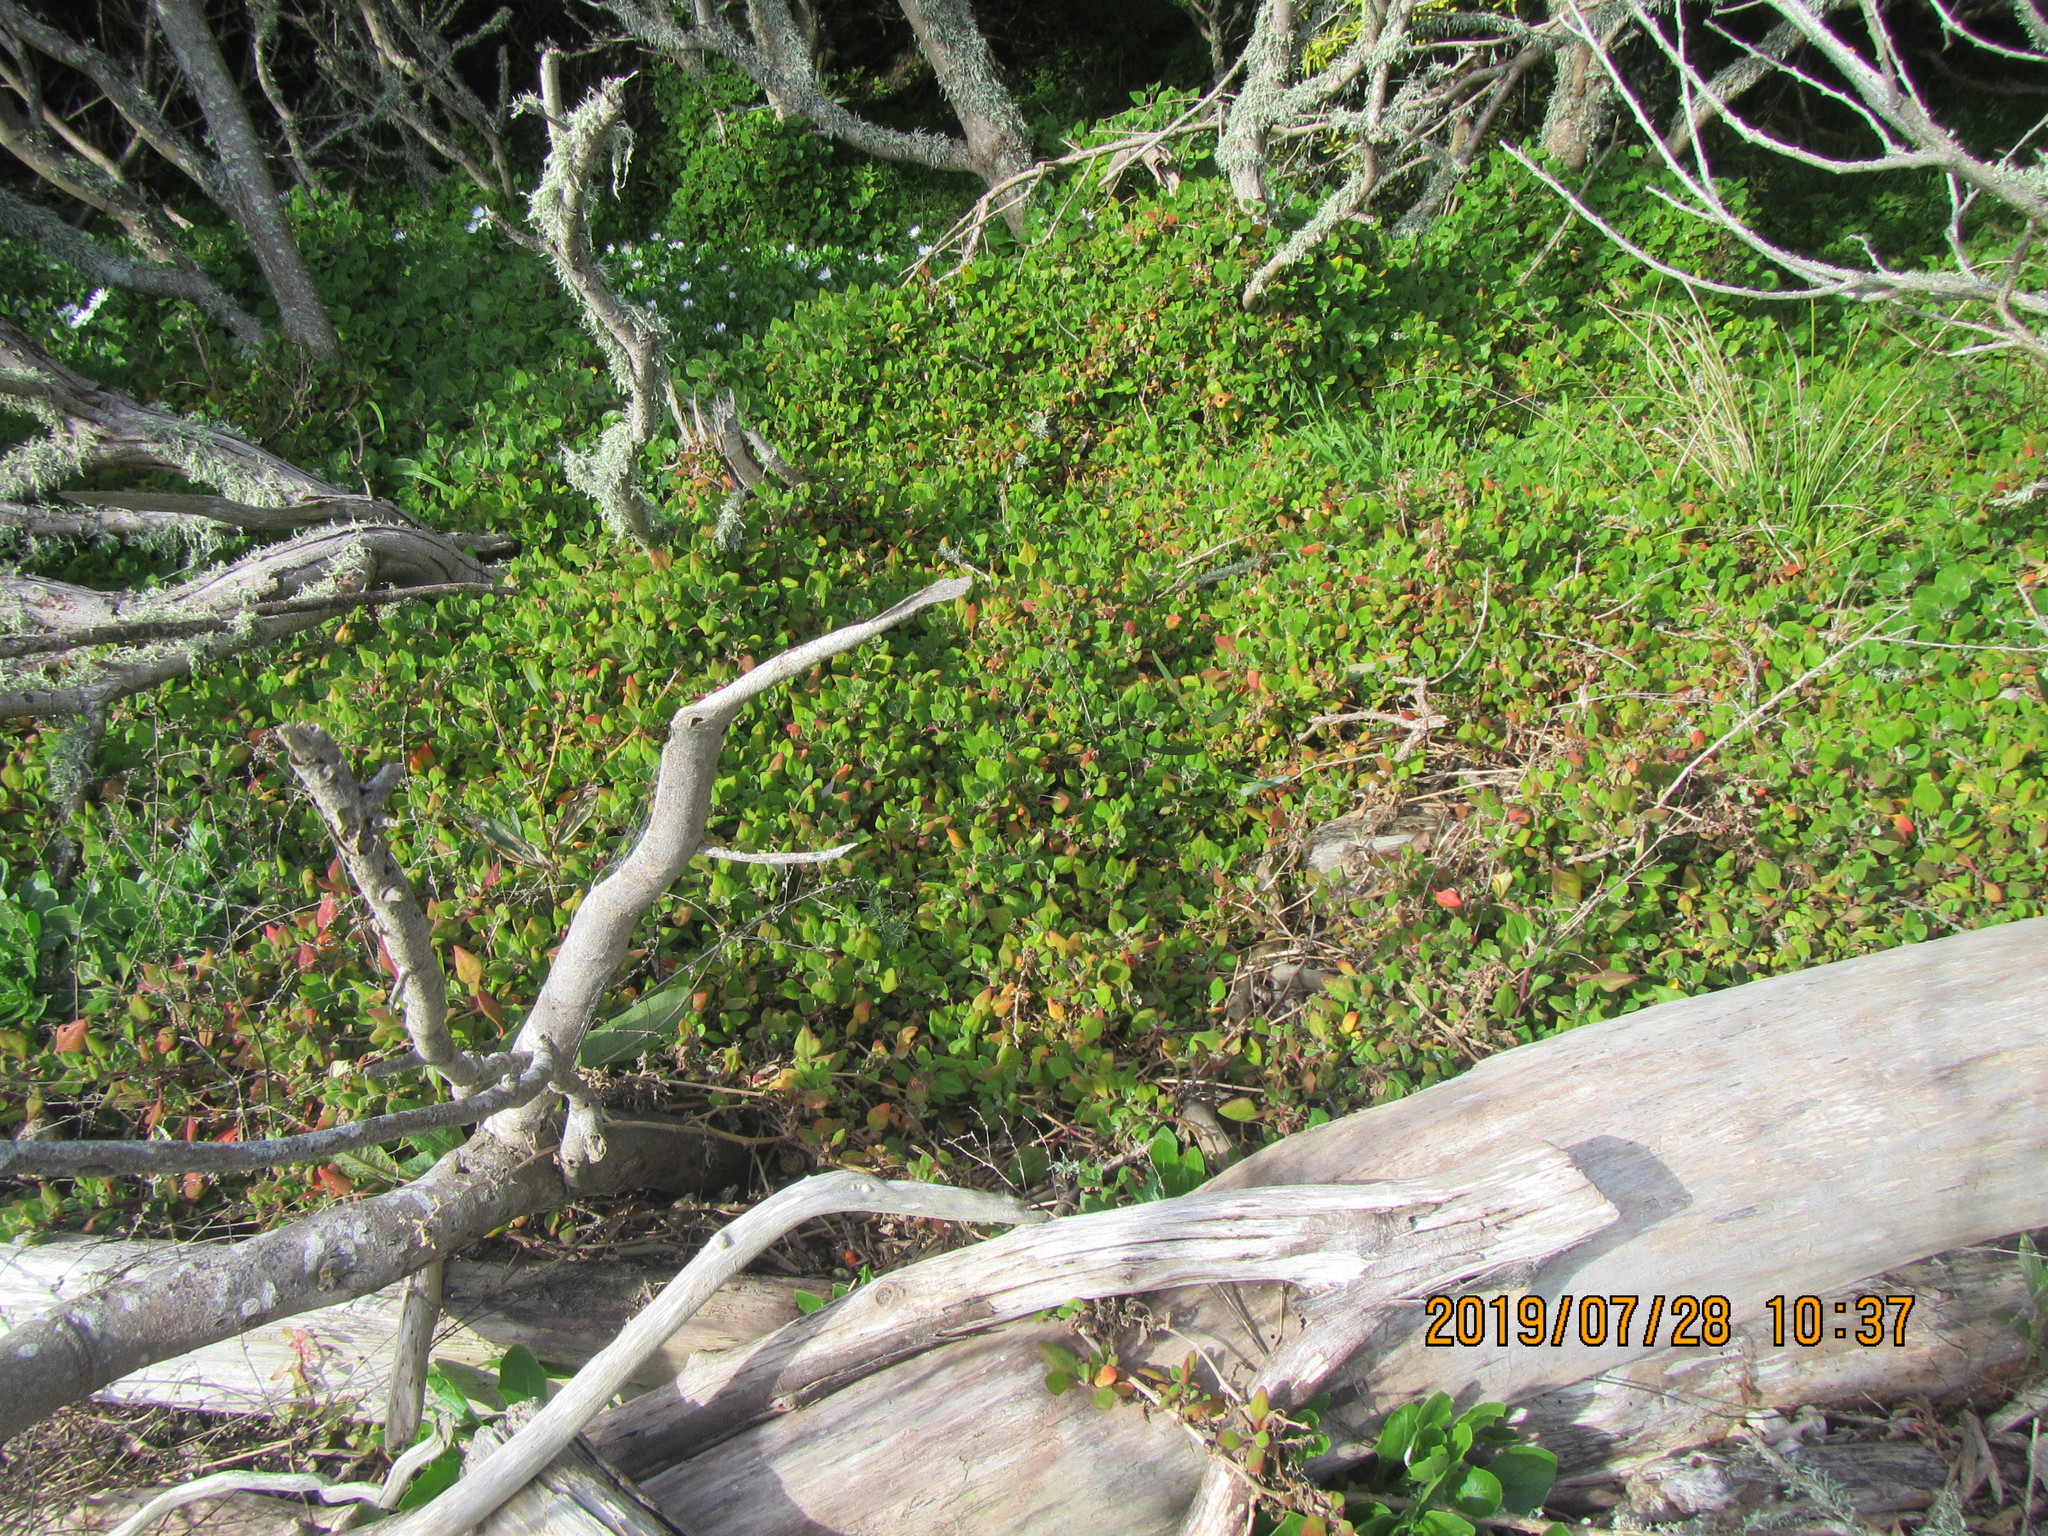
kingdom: Plantae
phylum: Tracheophyta
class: Magnoliopsida
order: Caryophyllales
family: Aizoaceae
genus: Tetragonia
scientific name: Tetragonia implexicoma
